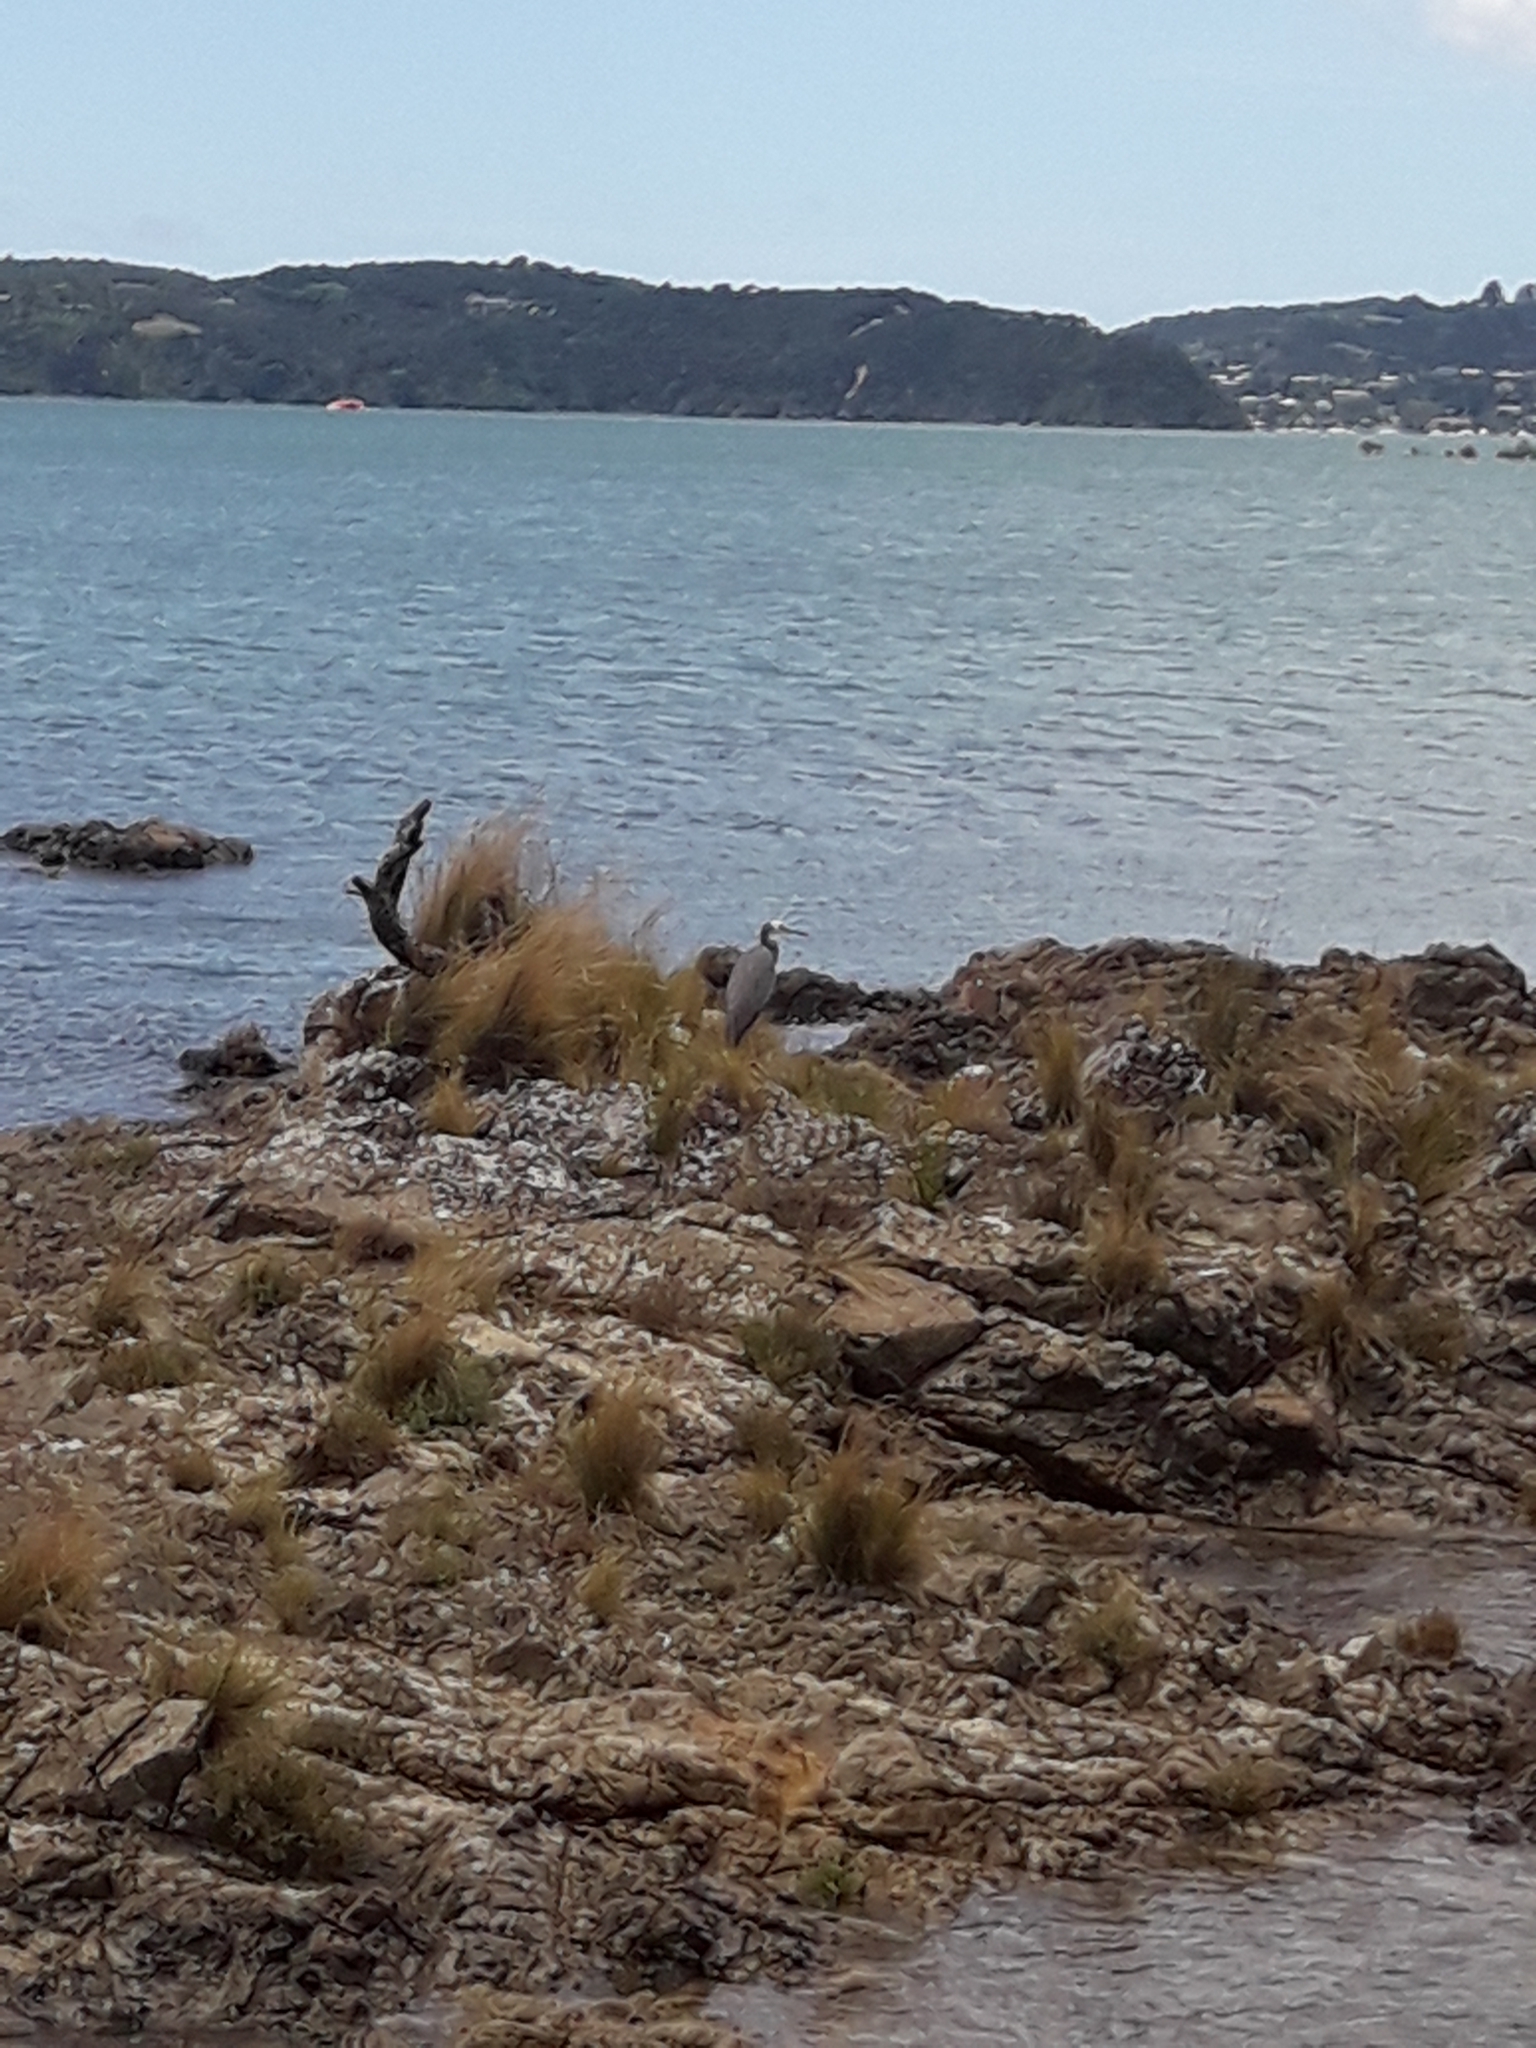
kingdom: Animalia
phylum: Chordata
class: Aves
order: Pelecaniformes
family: Ardeidae
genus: Egretta
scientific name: Egretta novaehollandiae
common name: White-faced heron
